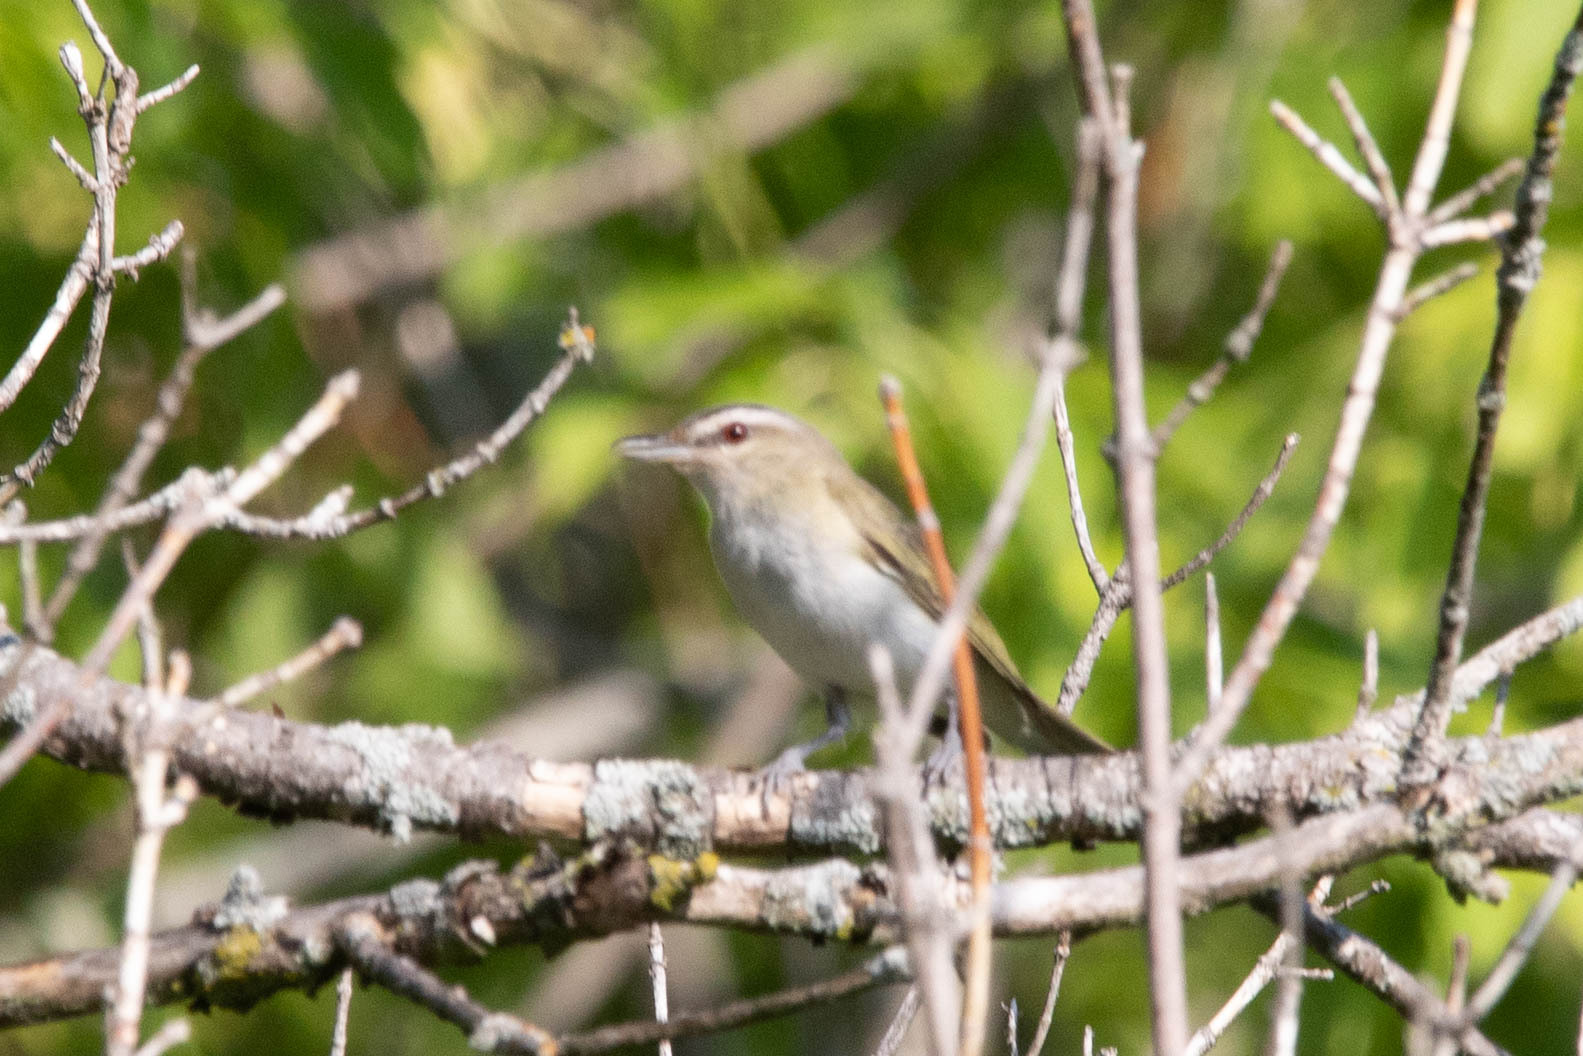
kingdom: Animalia
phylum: Chordata
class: Aves
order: Passeriformes
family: Vireonidae
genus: Vireo
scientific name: Vireo olivaceus
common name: Red-eyed vireo
